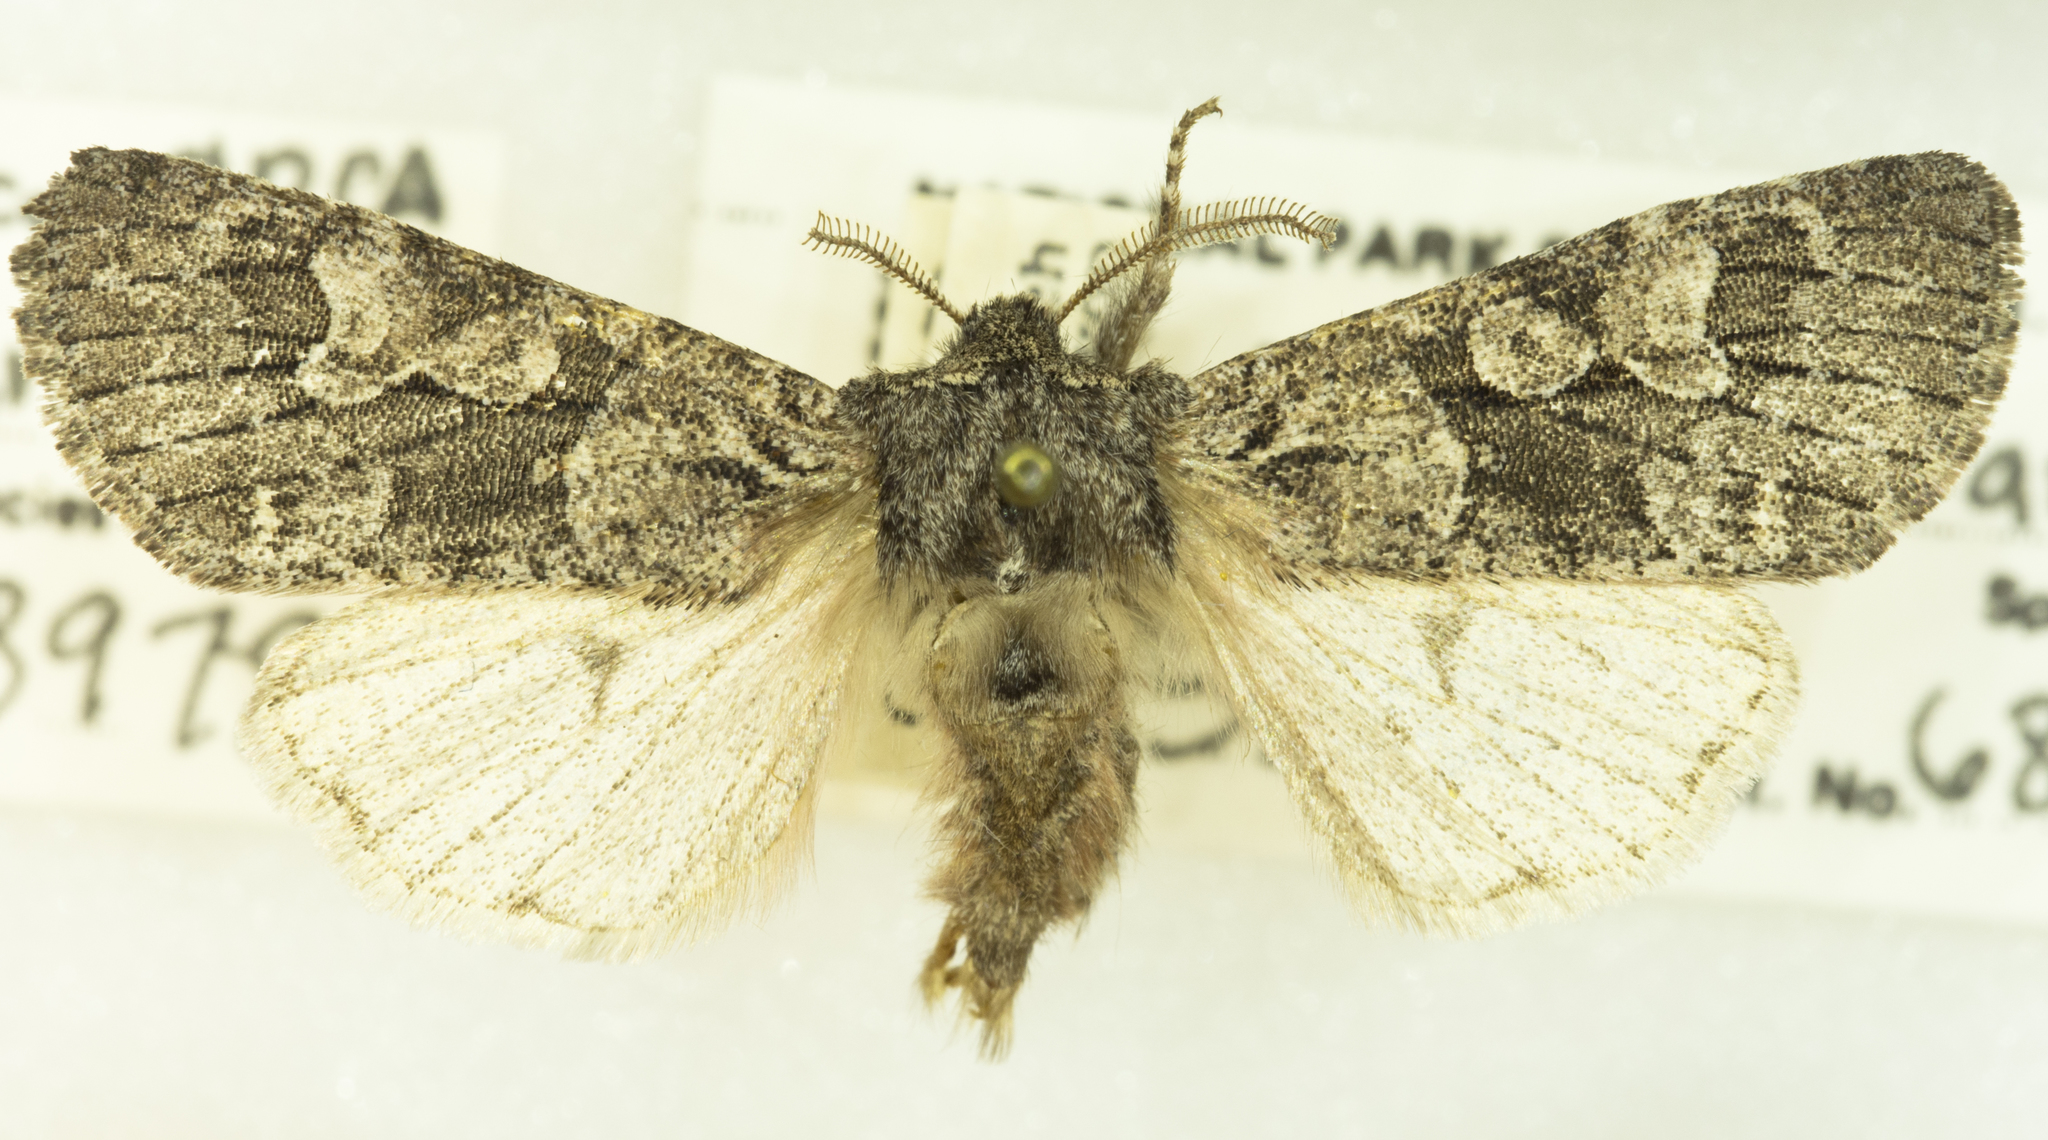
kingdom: Animalia
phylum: Arthropoda
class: Insecta
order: Lepidoptera
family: Noctuidae
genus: Egira
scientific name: Egira variabilis
